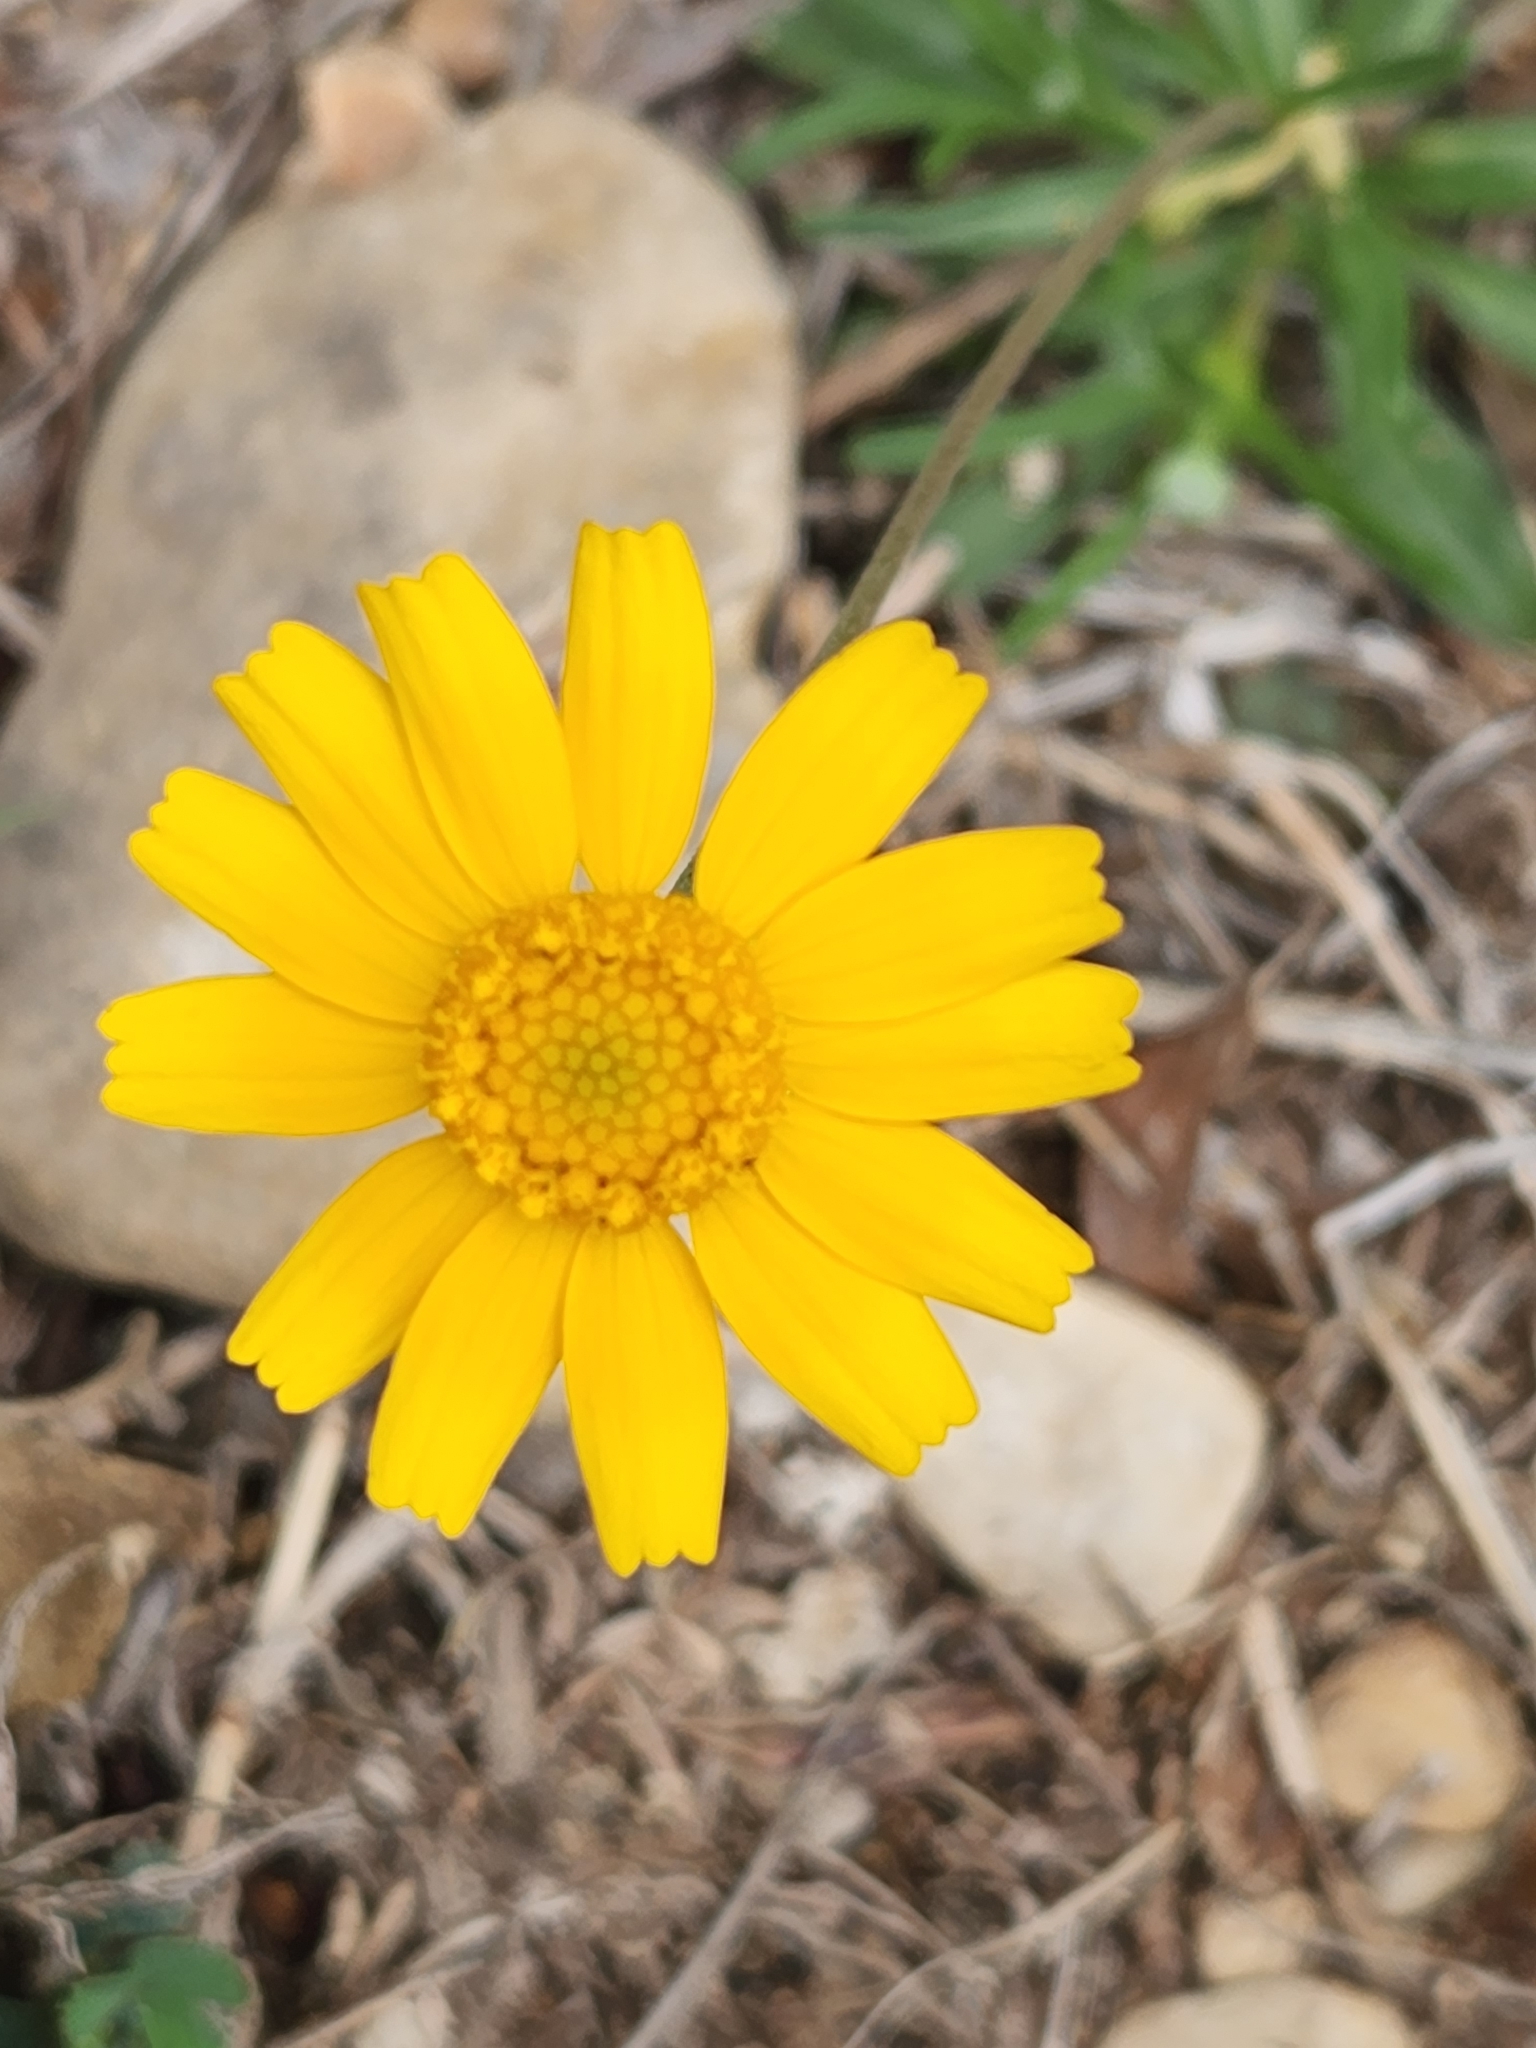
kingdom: Plantae
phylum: Tracheophyta
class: Magnoliopsida
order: Asterales
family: Asteraceae
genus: Tetraneuris
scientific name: Tetraneuris scaposa
